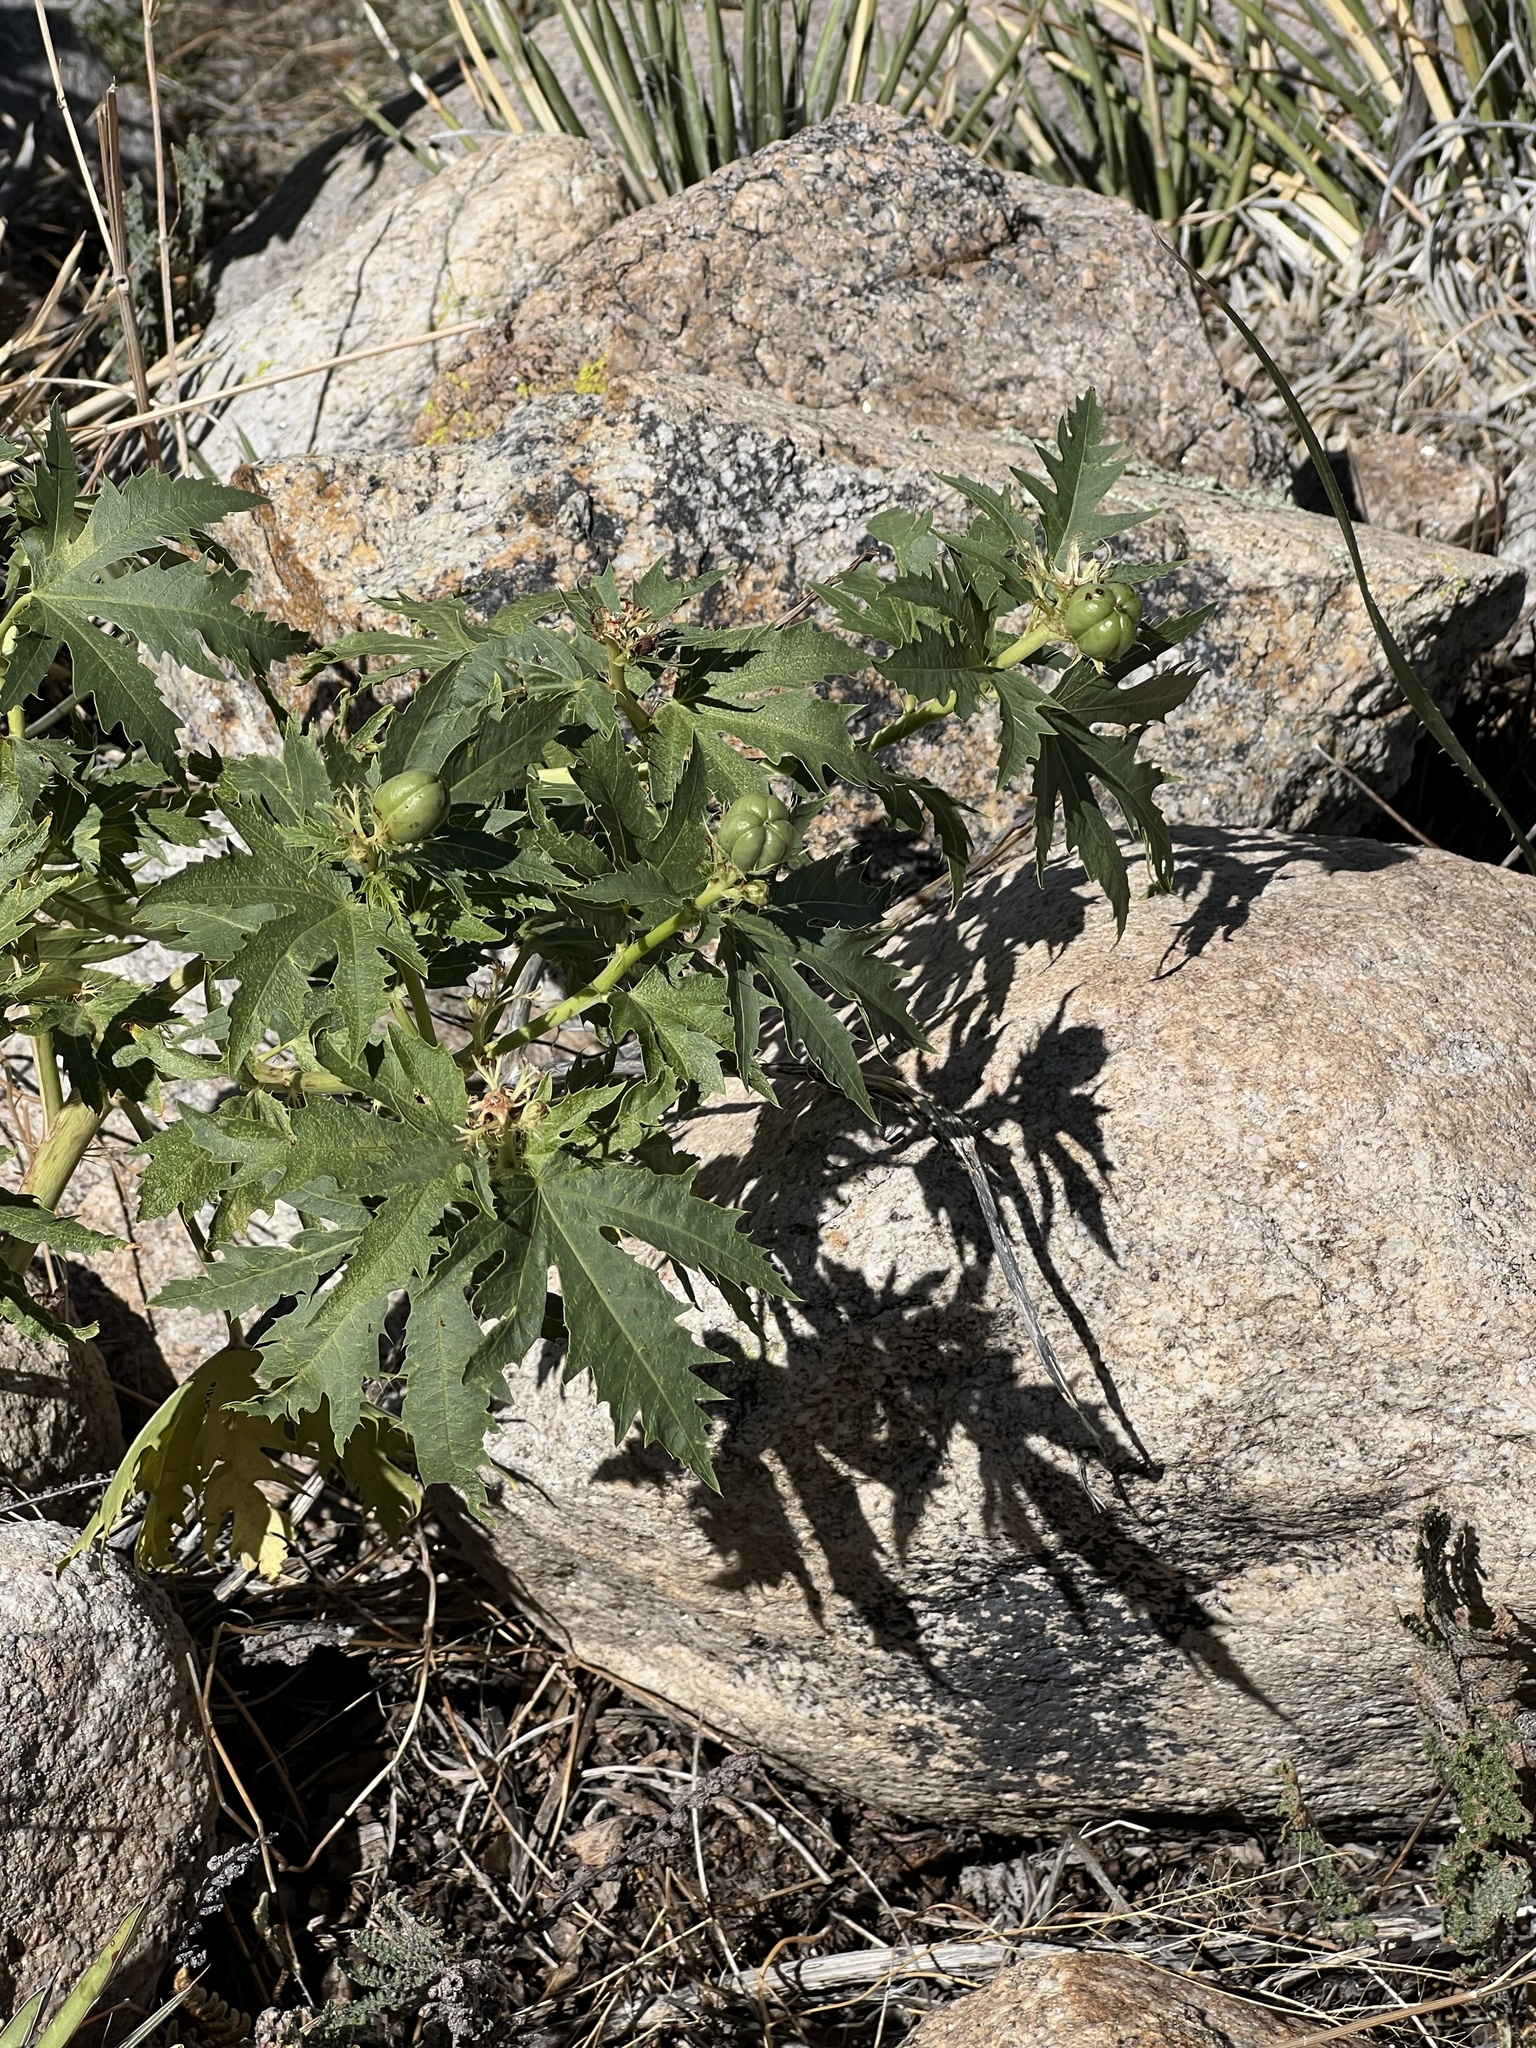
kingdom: Plantae
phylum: Tracheophyta
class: Magnoliopsida
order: Malpighiales
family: Euphorbiaceae
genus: Jatropha
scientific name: Jatropha macrorhiza
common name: Ragged nettlespurge
